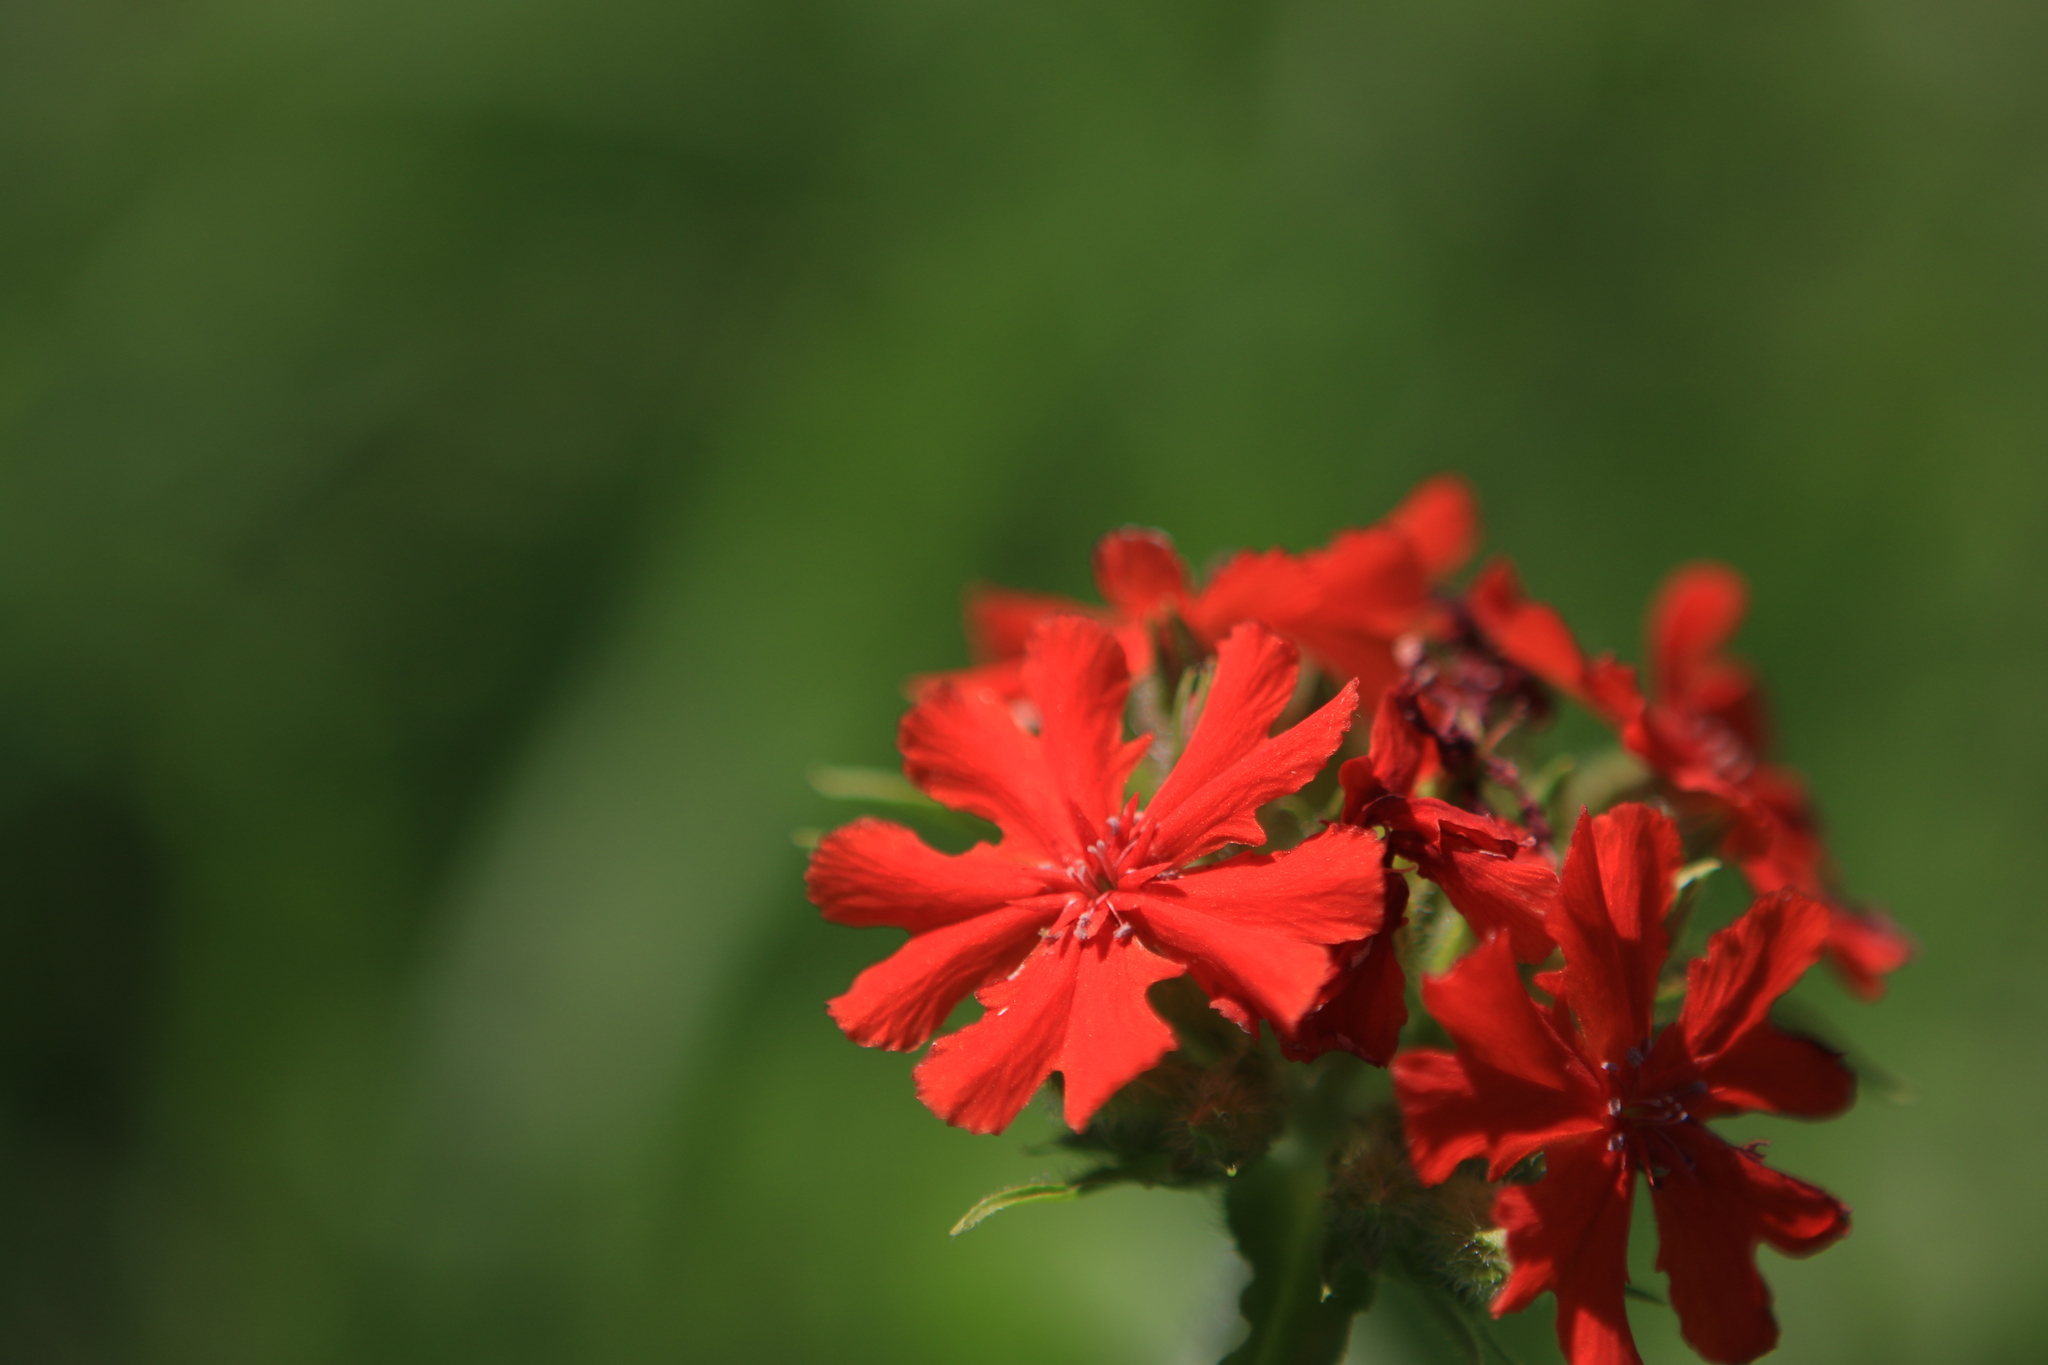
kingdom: Plantae
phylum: Tracheophyta
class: Magnoliopsida
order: Caryophyllales
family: Caryophyllaceae
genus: Silene
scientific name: Silene chalcedonica
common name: Maltese-cross
